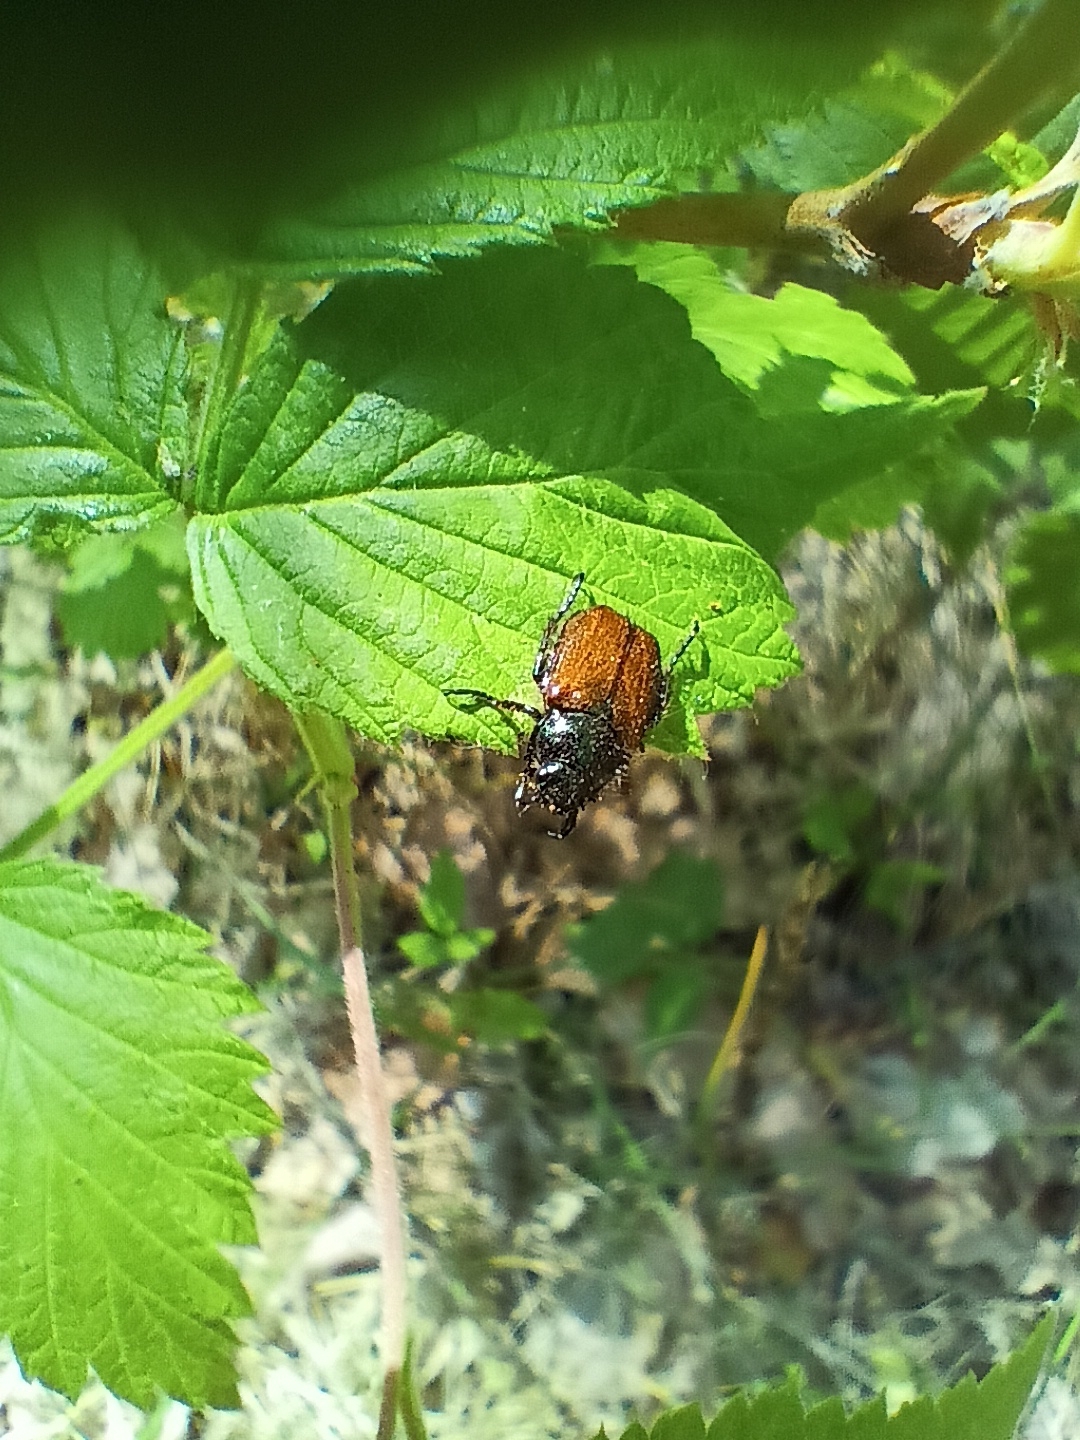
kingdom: Animalia
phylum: Arthropoda
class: Insecta
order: Coleoptera
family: Scarabaeidae
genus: Phyllopertha
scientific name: Phyllopertha horticola
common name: Garden chafer
